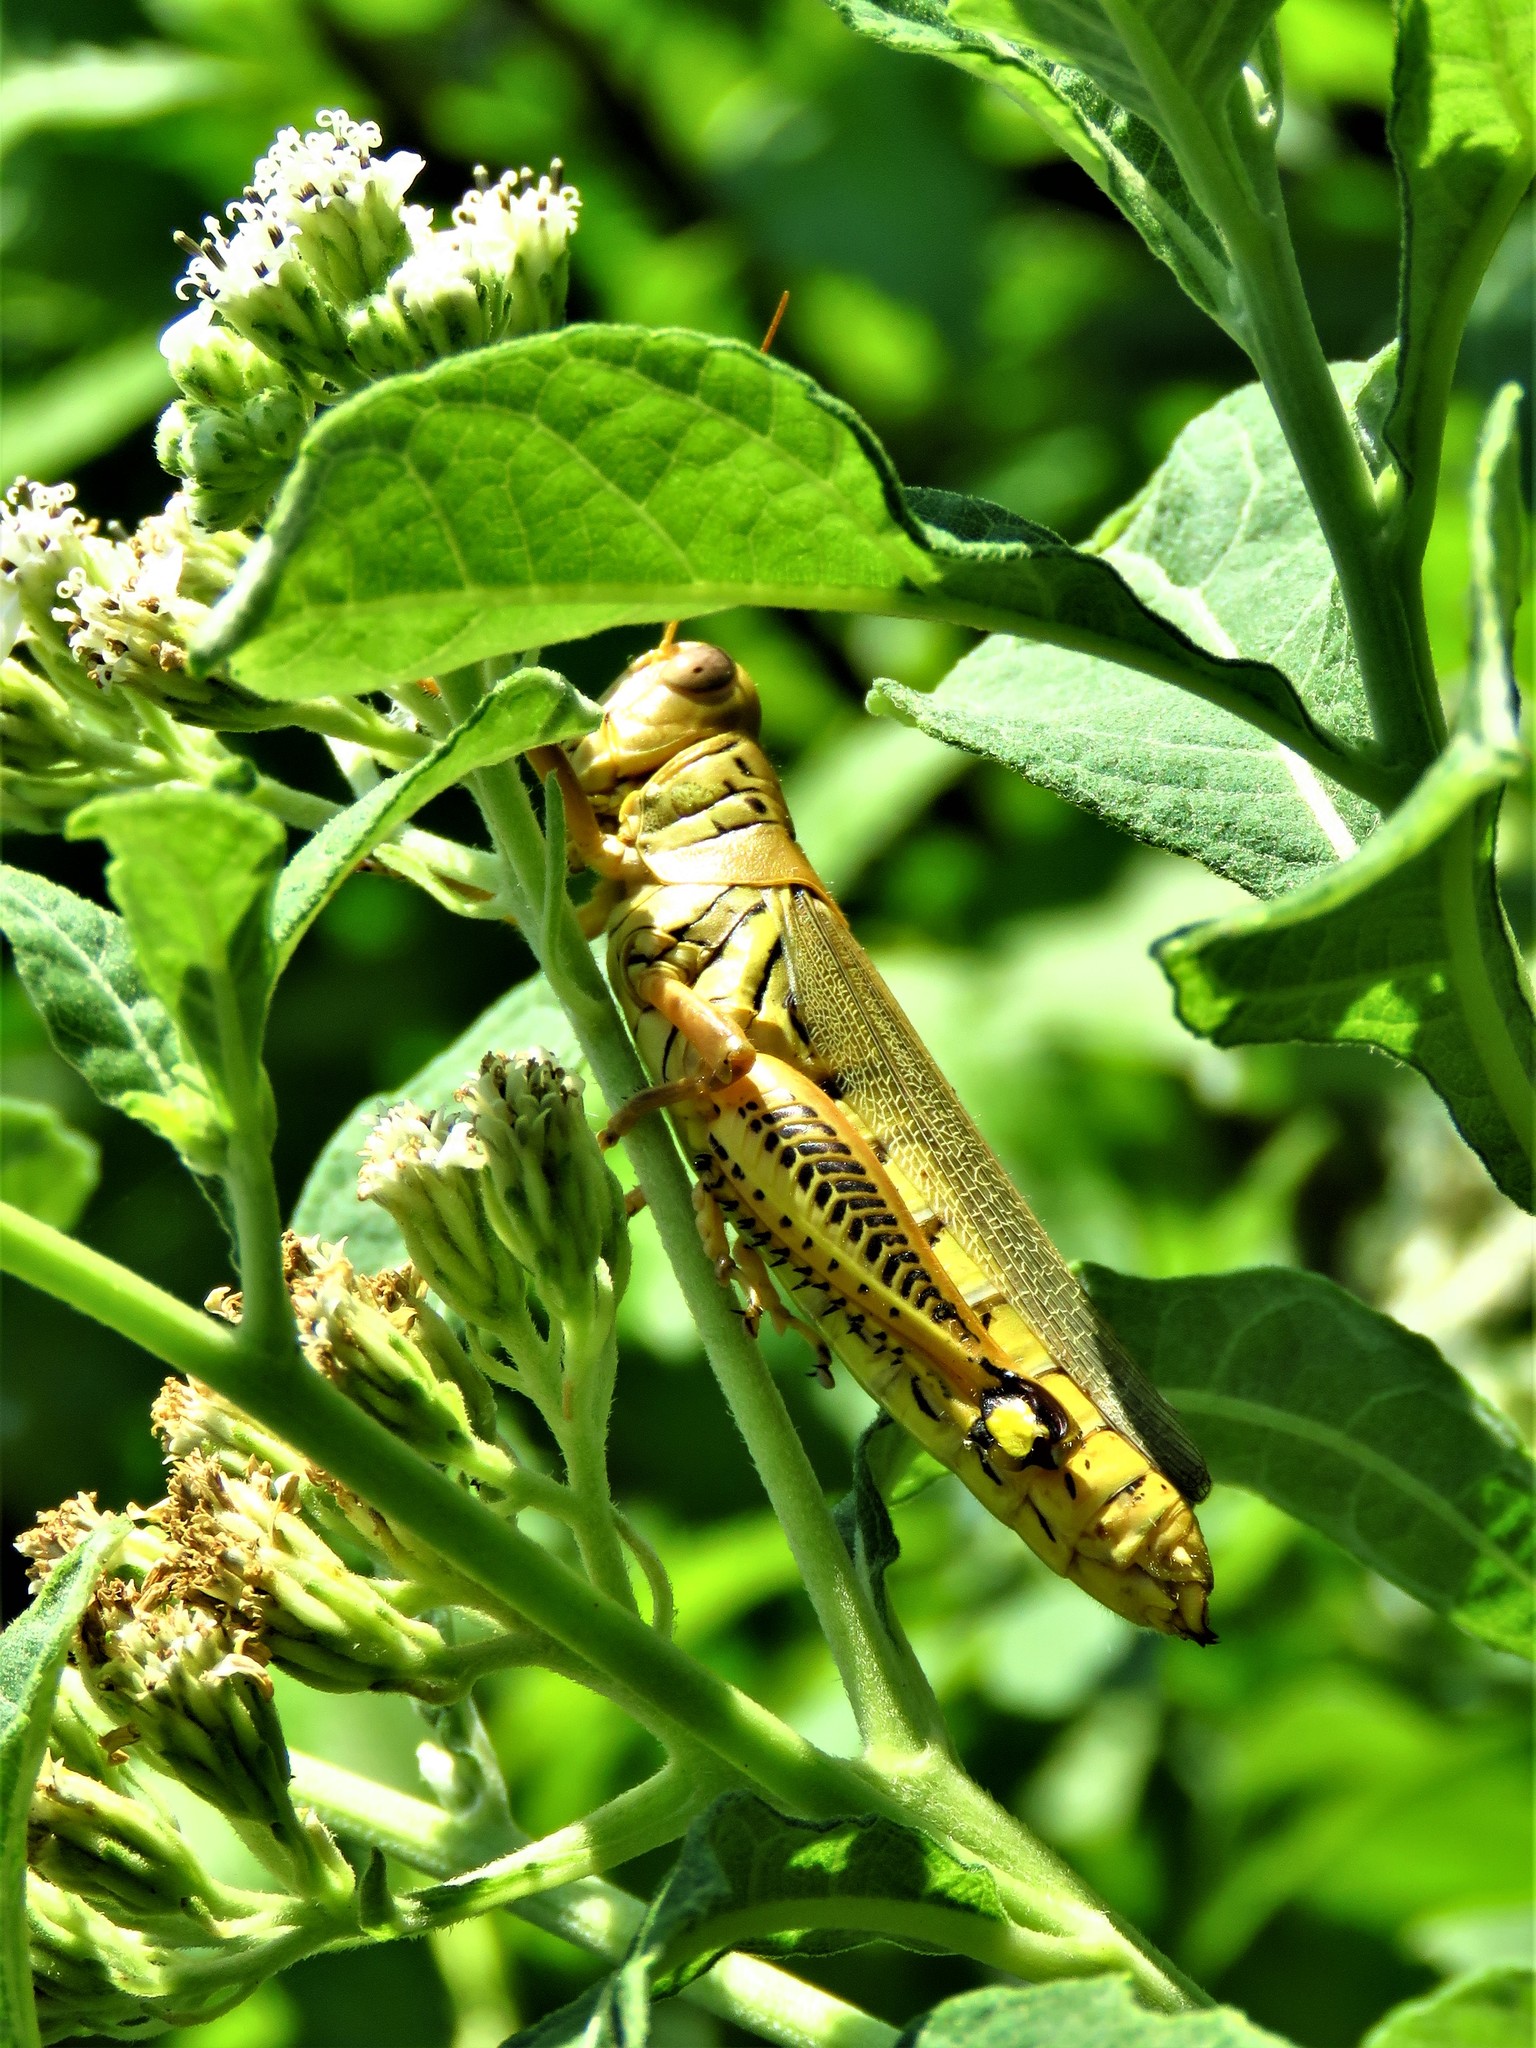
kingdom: Animalia
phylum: Arthropoda
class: Insecta
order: Orthoptera
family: Acrididae
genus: Melanoplus
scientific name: Melanoplus differentialis
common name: Differential grasshopper
